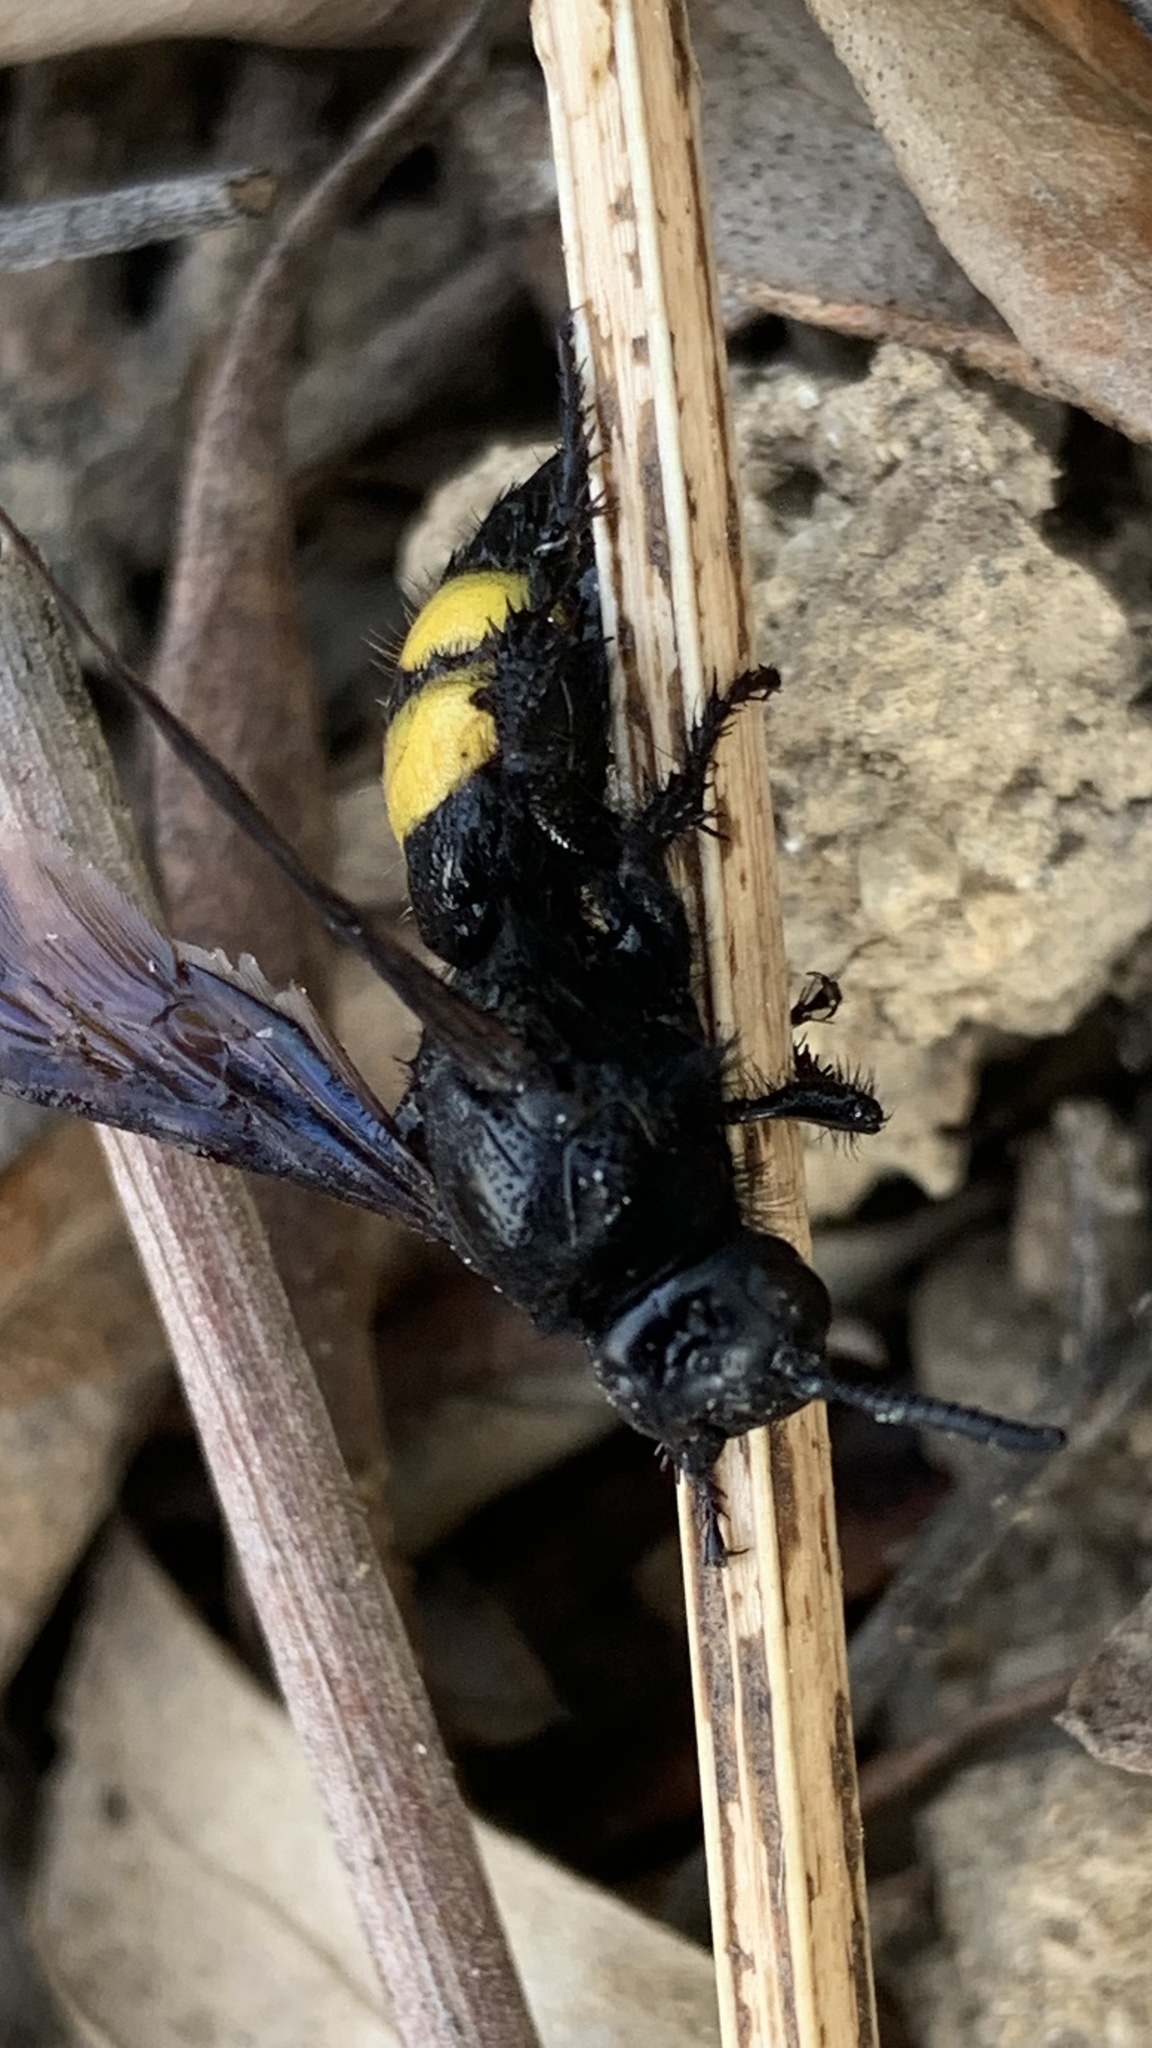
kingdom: Animalia
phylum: Arthropoda
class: Insecta
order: Hymenoptera
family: Scoliidae
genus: Scolia
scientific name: Scolia hirta
